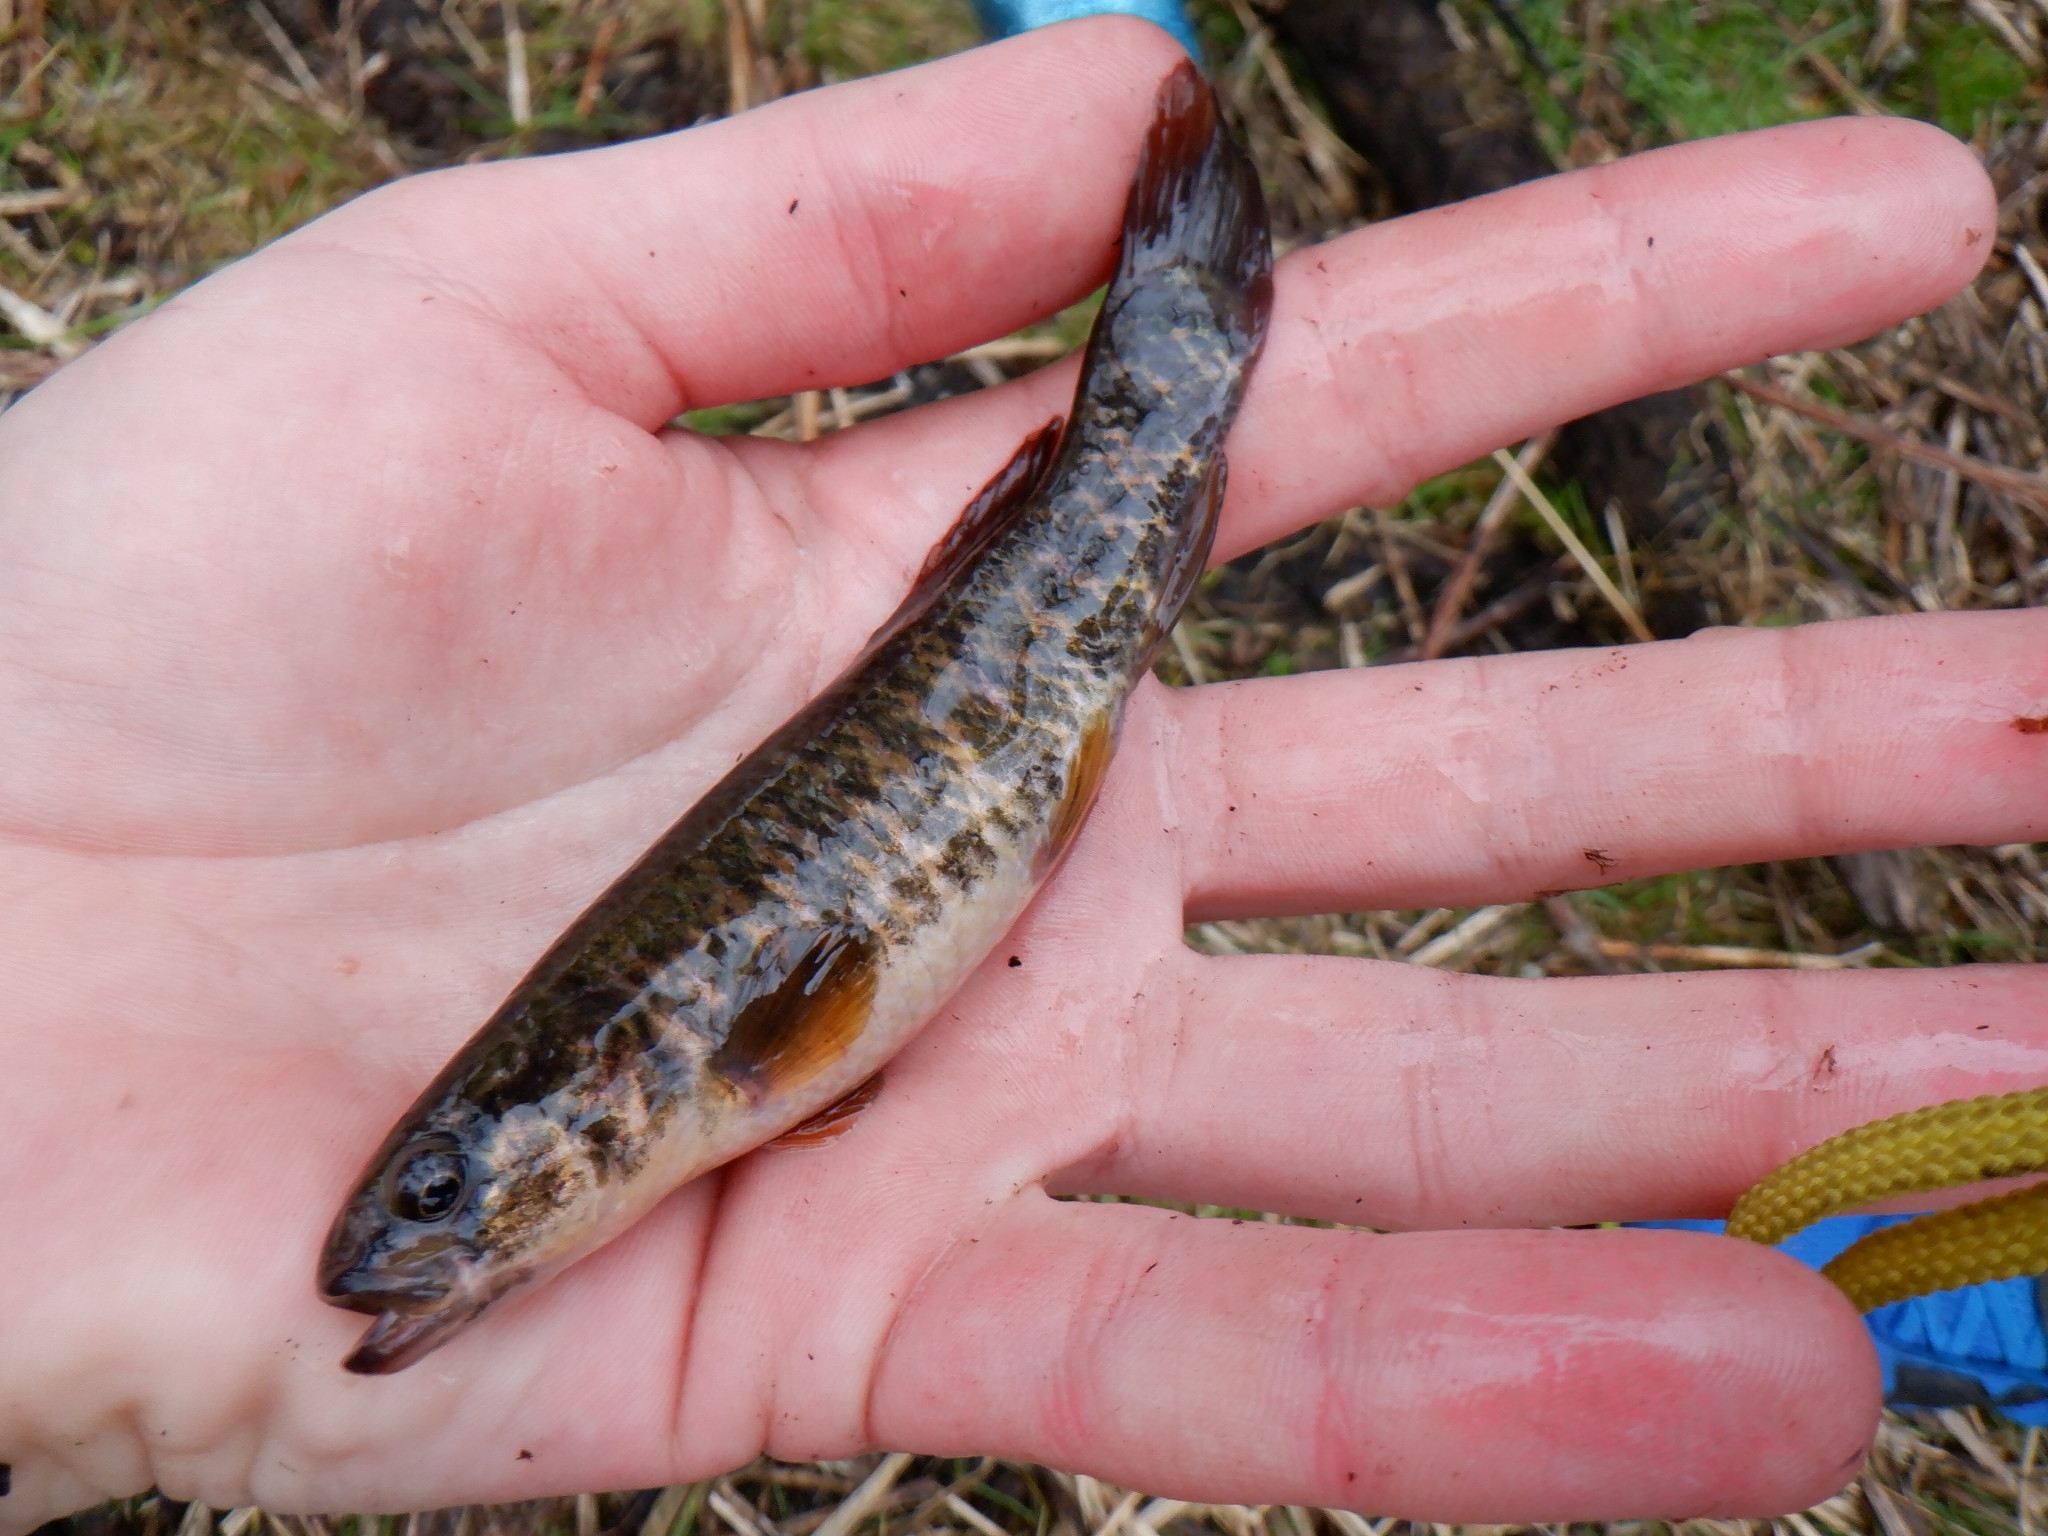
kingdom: Animalia
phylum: Chordata
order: Esociformes
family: Umbridae
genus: Umbra
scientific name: Umbra limi
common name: Central mudminnow
